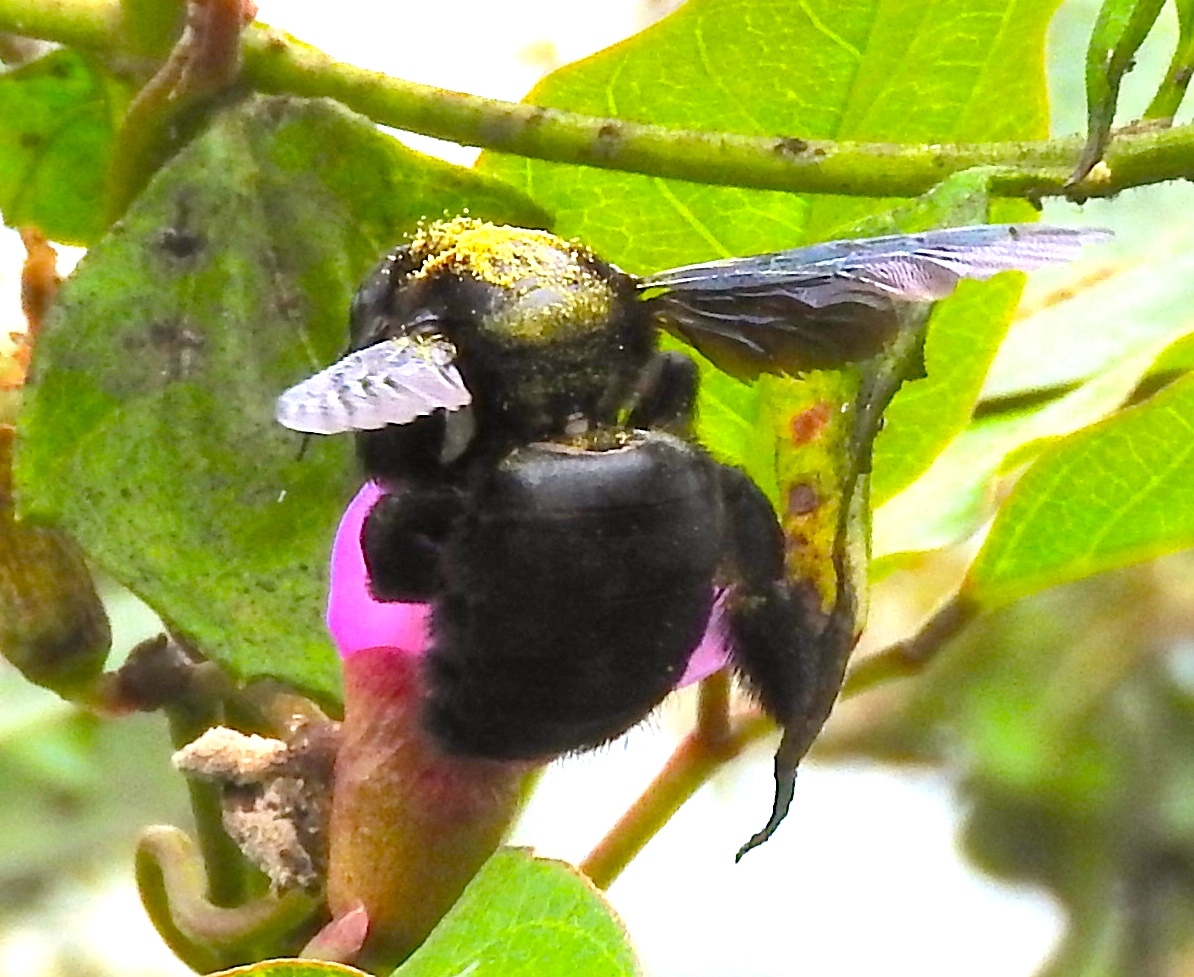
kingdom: Animalia
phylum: Arthropoda
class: Insecta
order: Hymenoptera
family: Apidae
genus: Xylocopa
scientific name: Xylocopa
